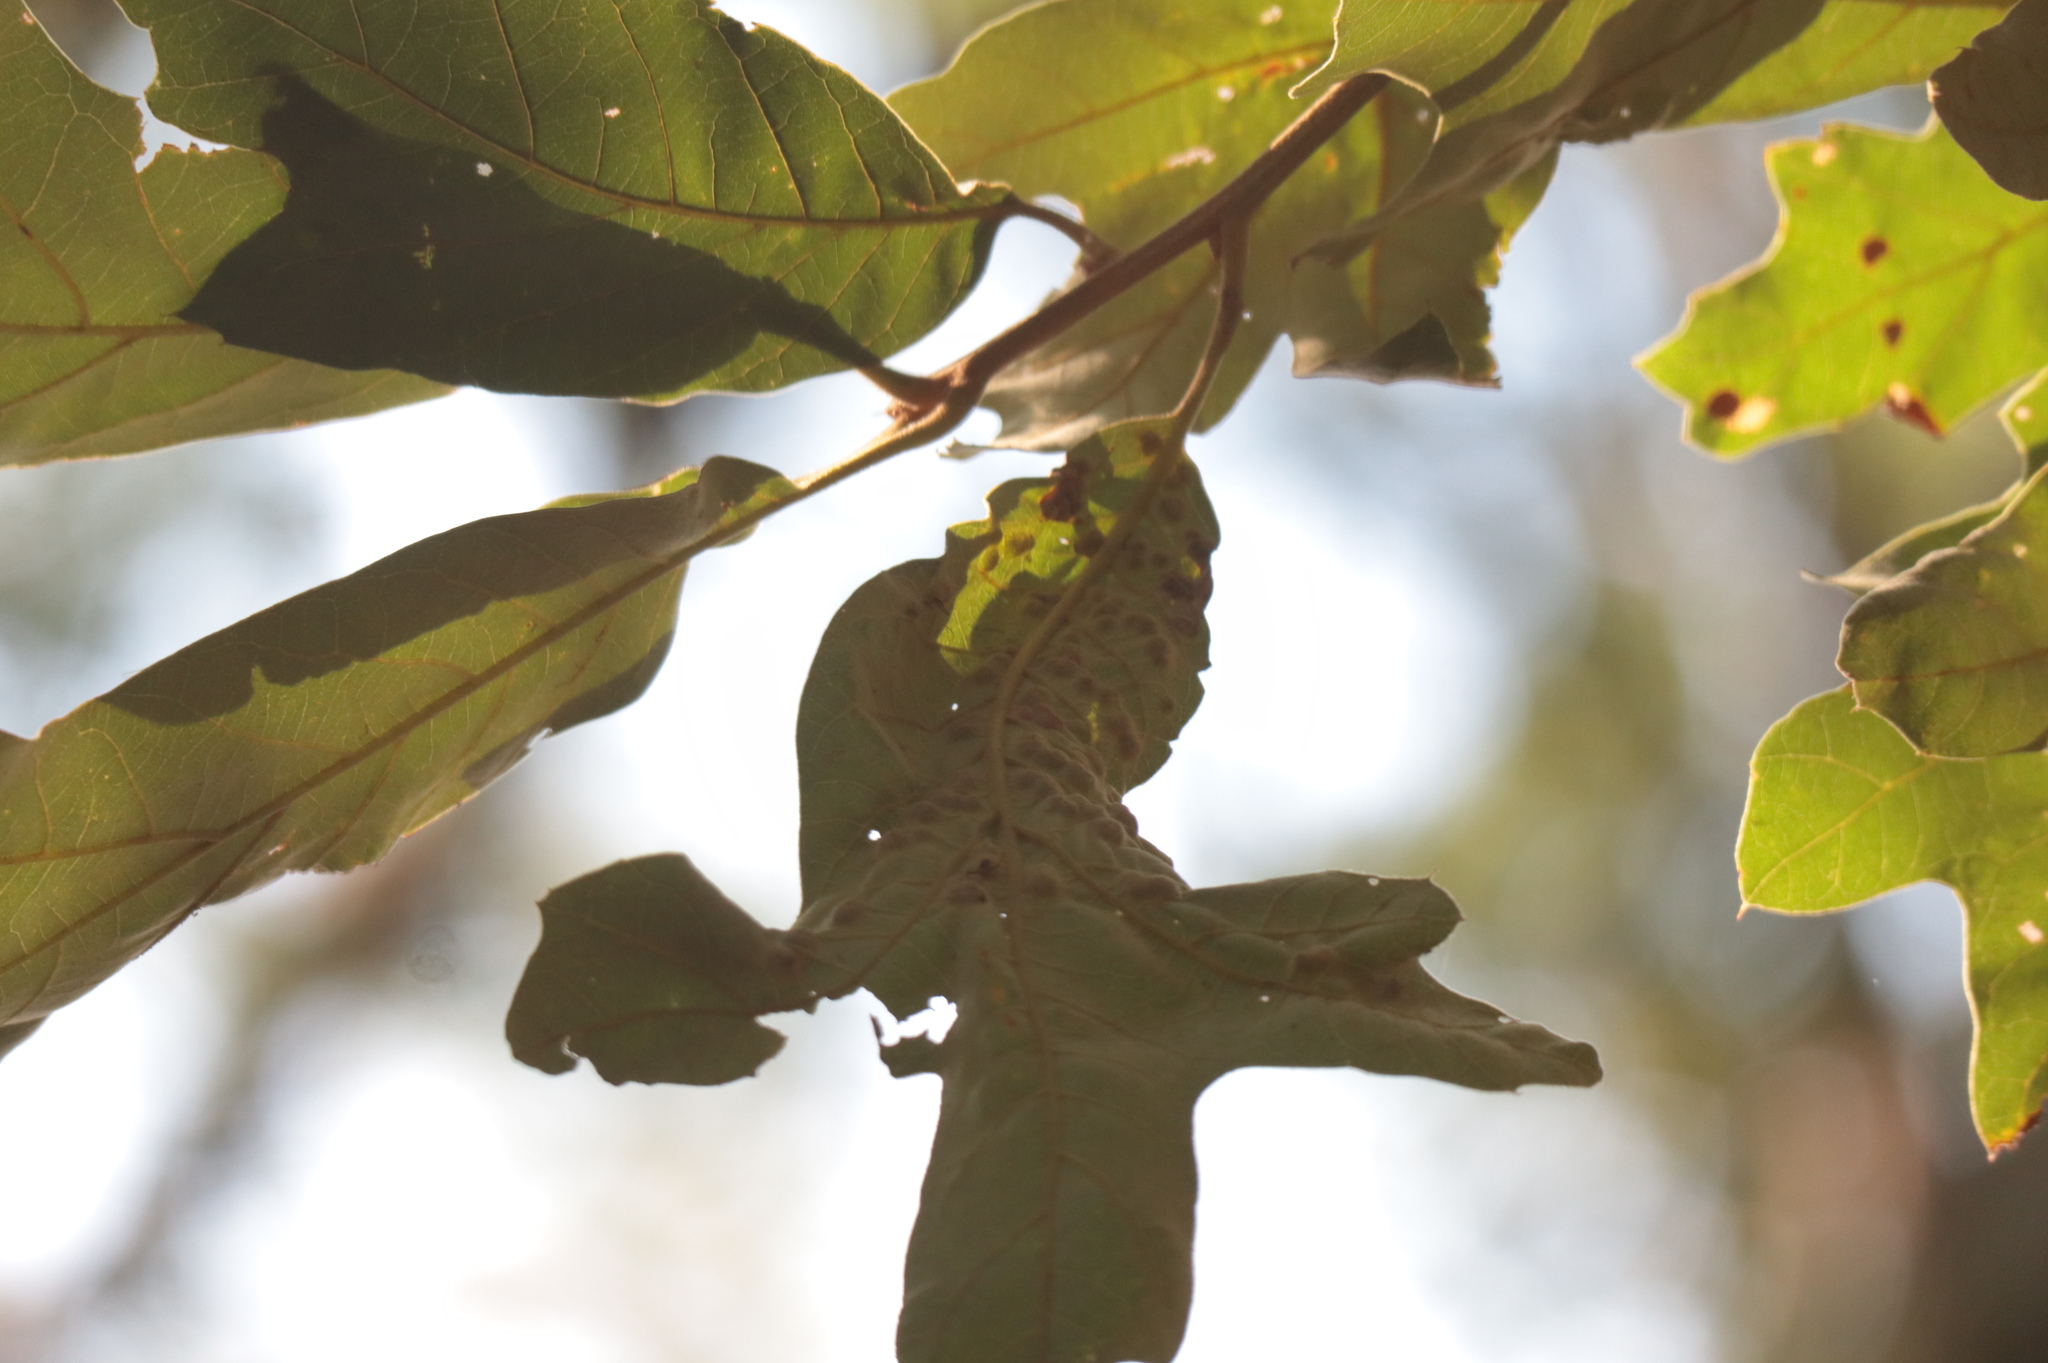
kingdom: Animalia
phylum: Arthropoda
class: Insecta
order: Hymenoptera
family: Cynipidae
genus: Callirhytis
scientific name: Callirhytis
